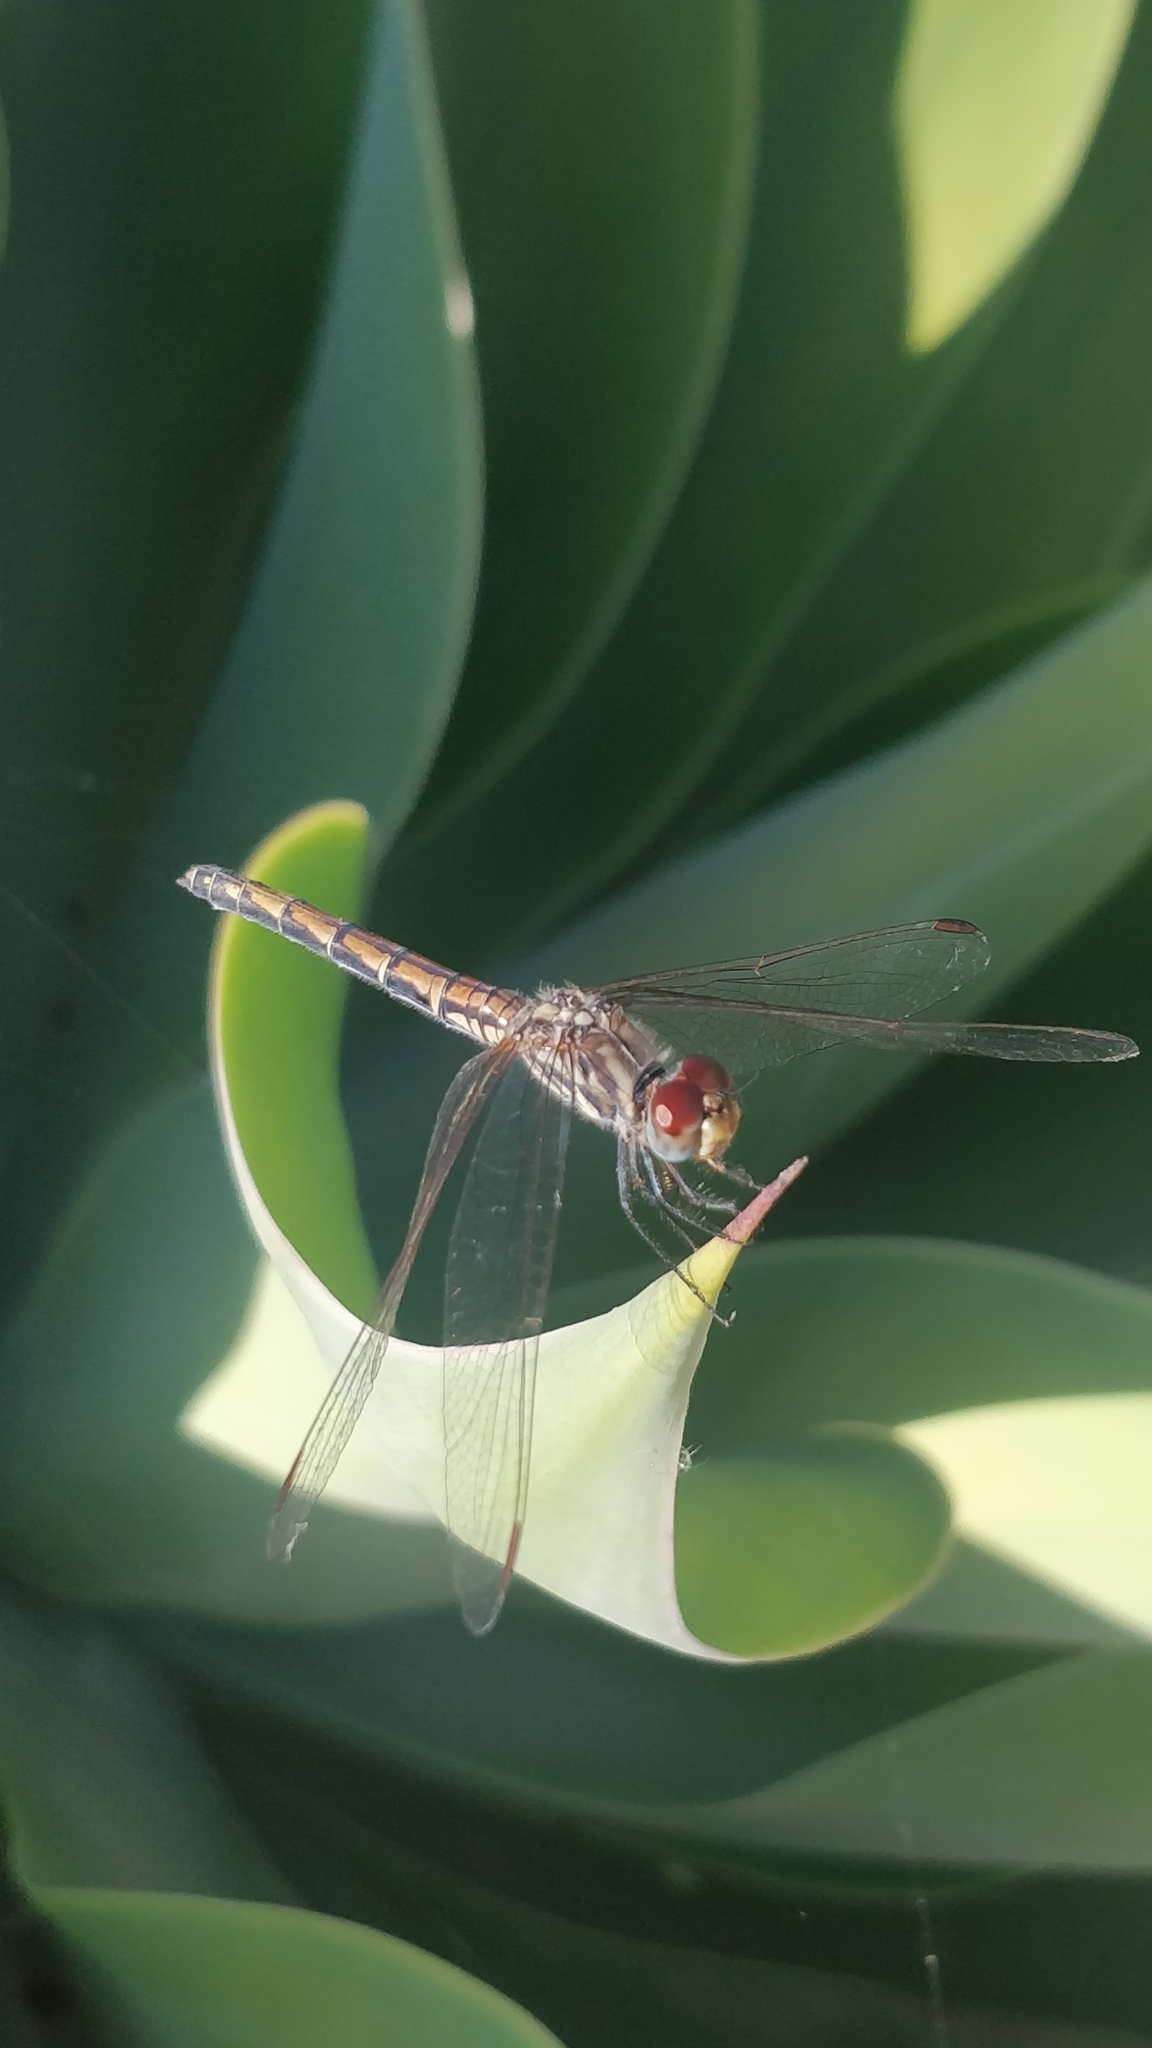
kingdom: Animalia
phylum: Arthropoda
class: Insecta
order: Odonata
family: Libellulidae
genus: Trithemis
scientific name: Trithemis arteriosa
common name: Red-veined dropwing
